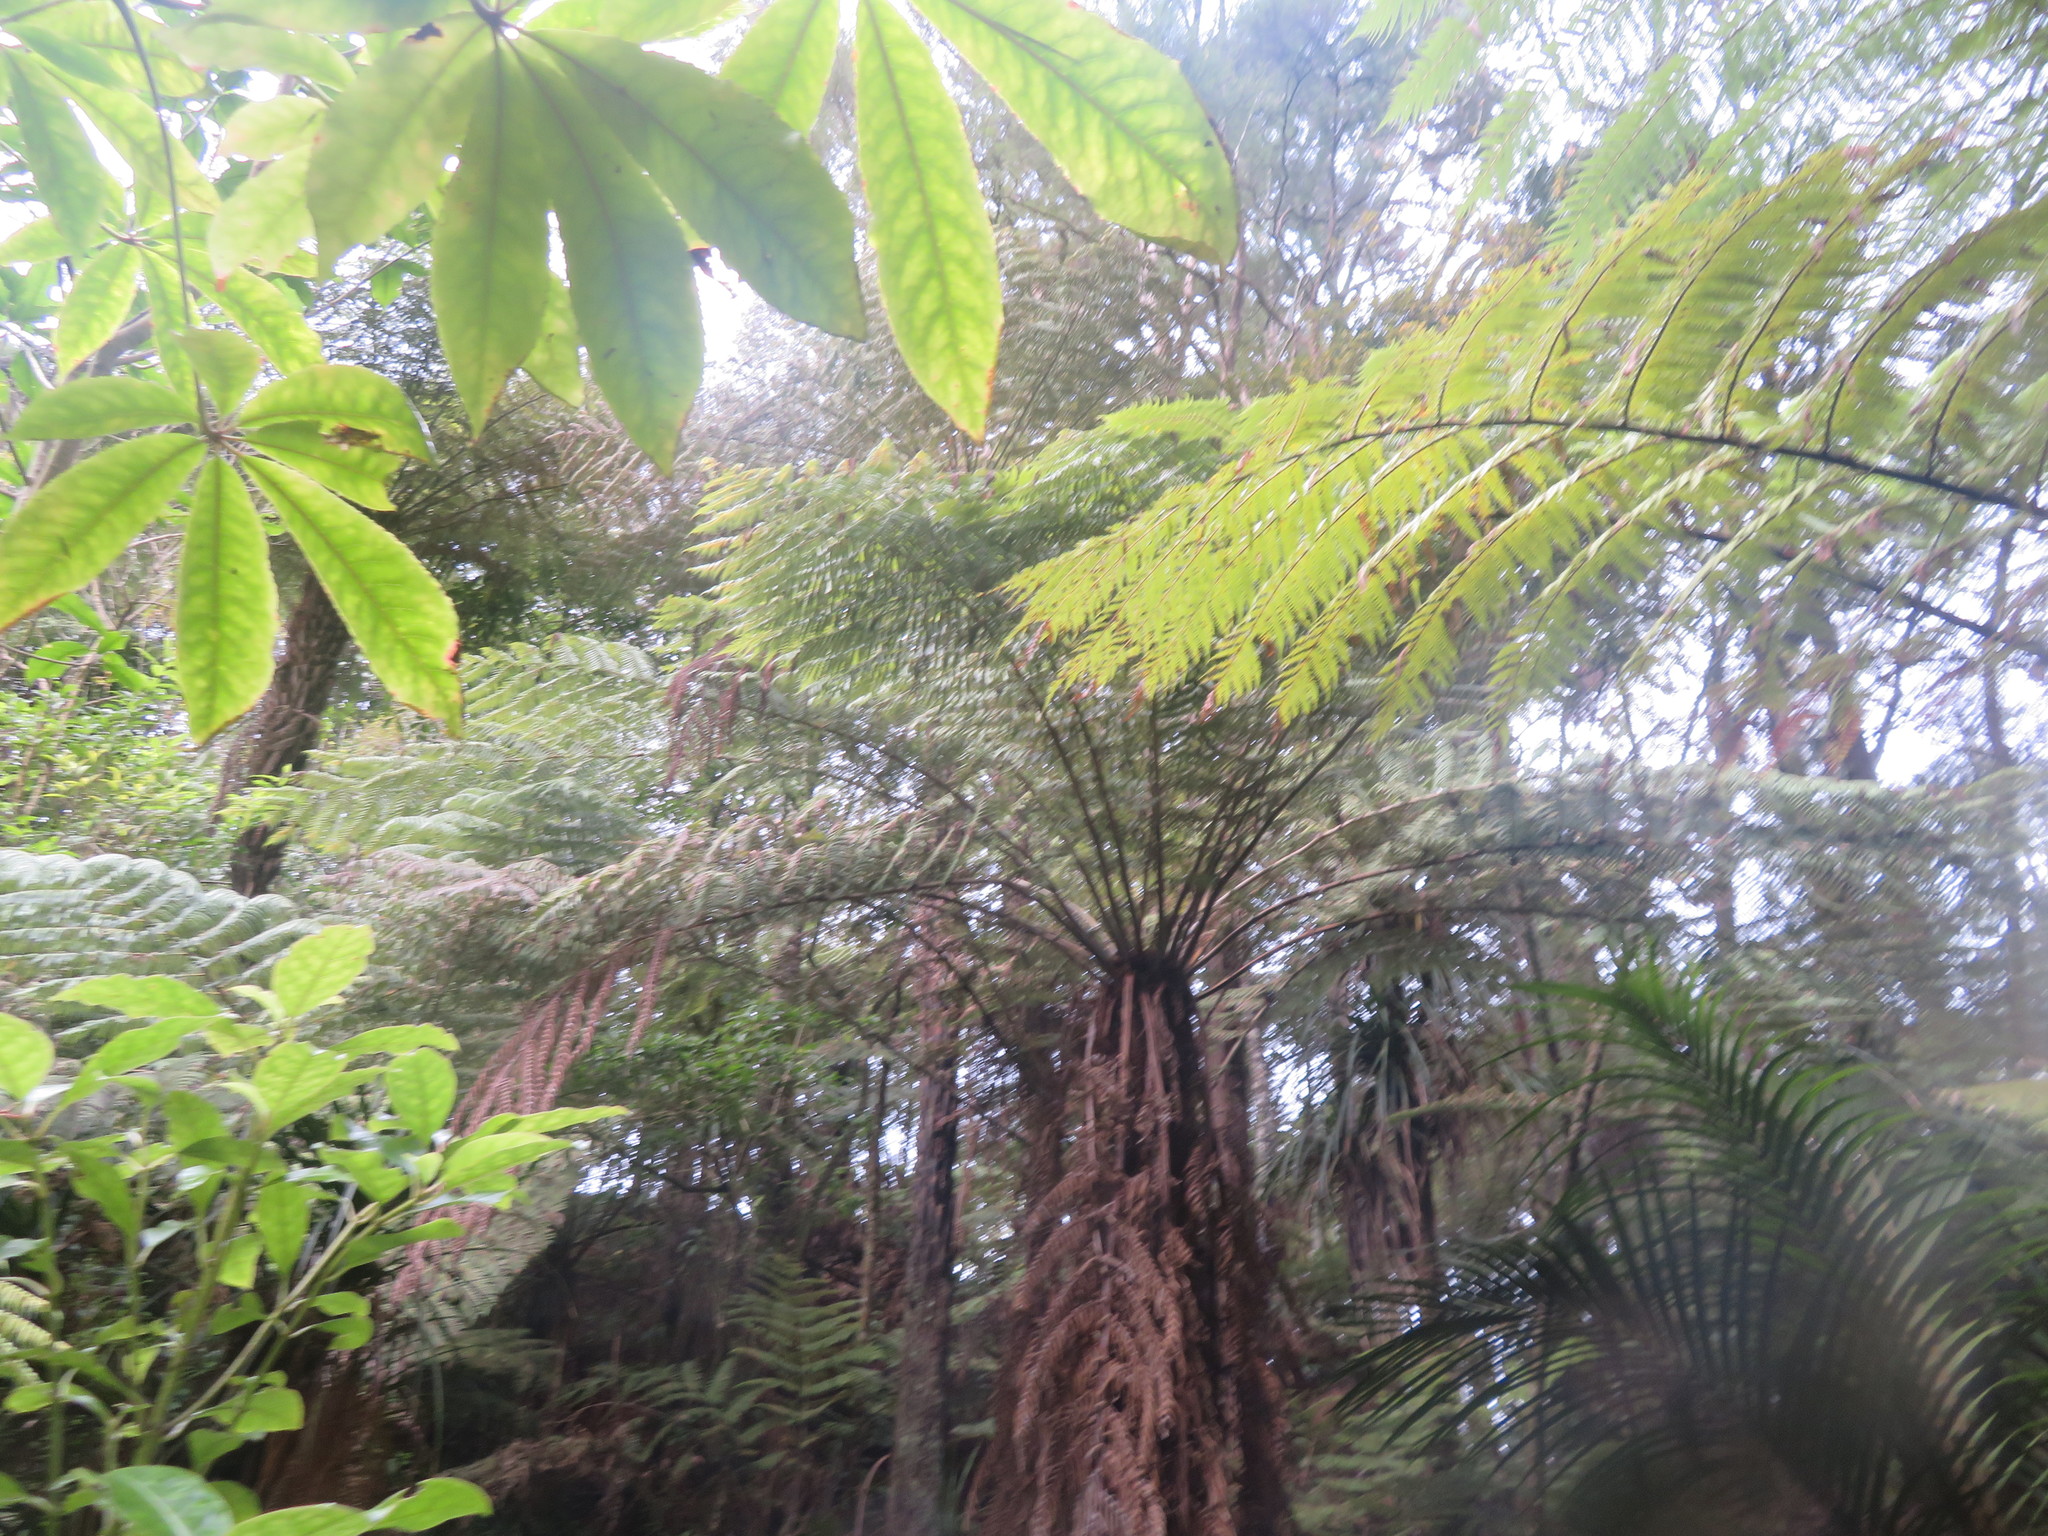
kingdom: Plantae
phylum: Tracheophyta
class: Magnoliopsida
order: Apiales
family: Araliaceae
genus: Schefflera
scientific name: Schefflera digitata
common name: Pate
